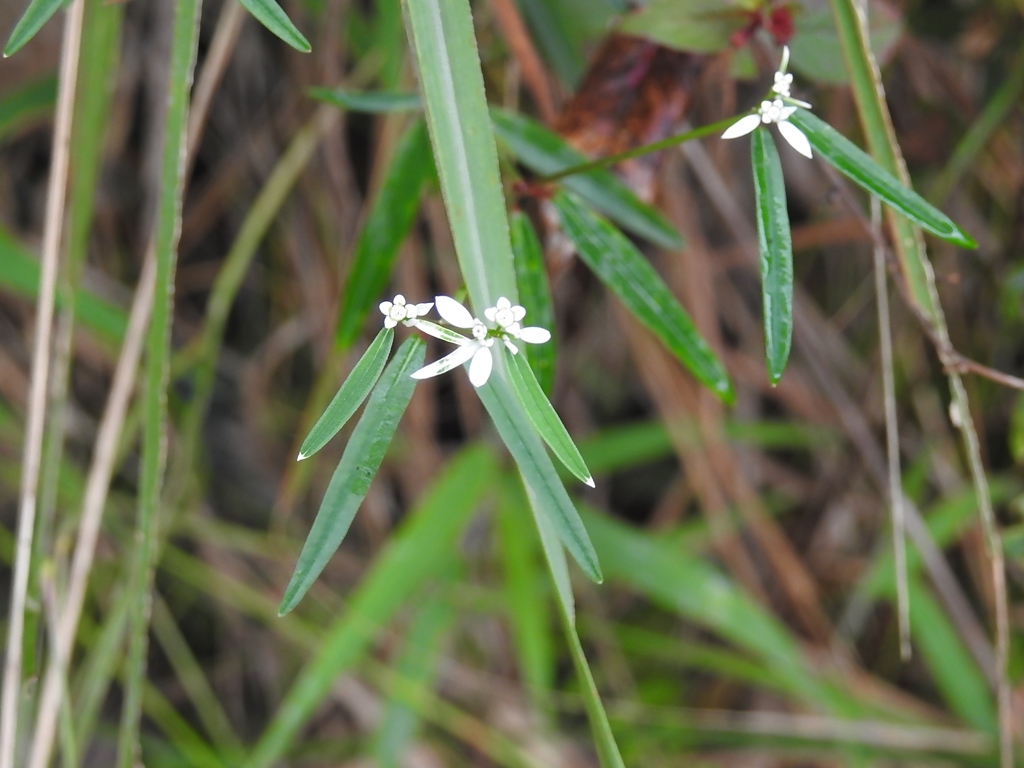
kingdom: Plantae
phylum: Tracheophyta
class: Magnoliopsida
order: Malpighiales
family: Euphorbiaceae
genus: Euphorbia
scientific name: Euphorbia ariensis
